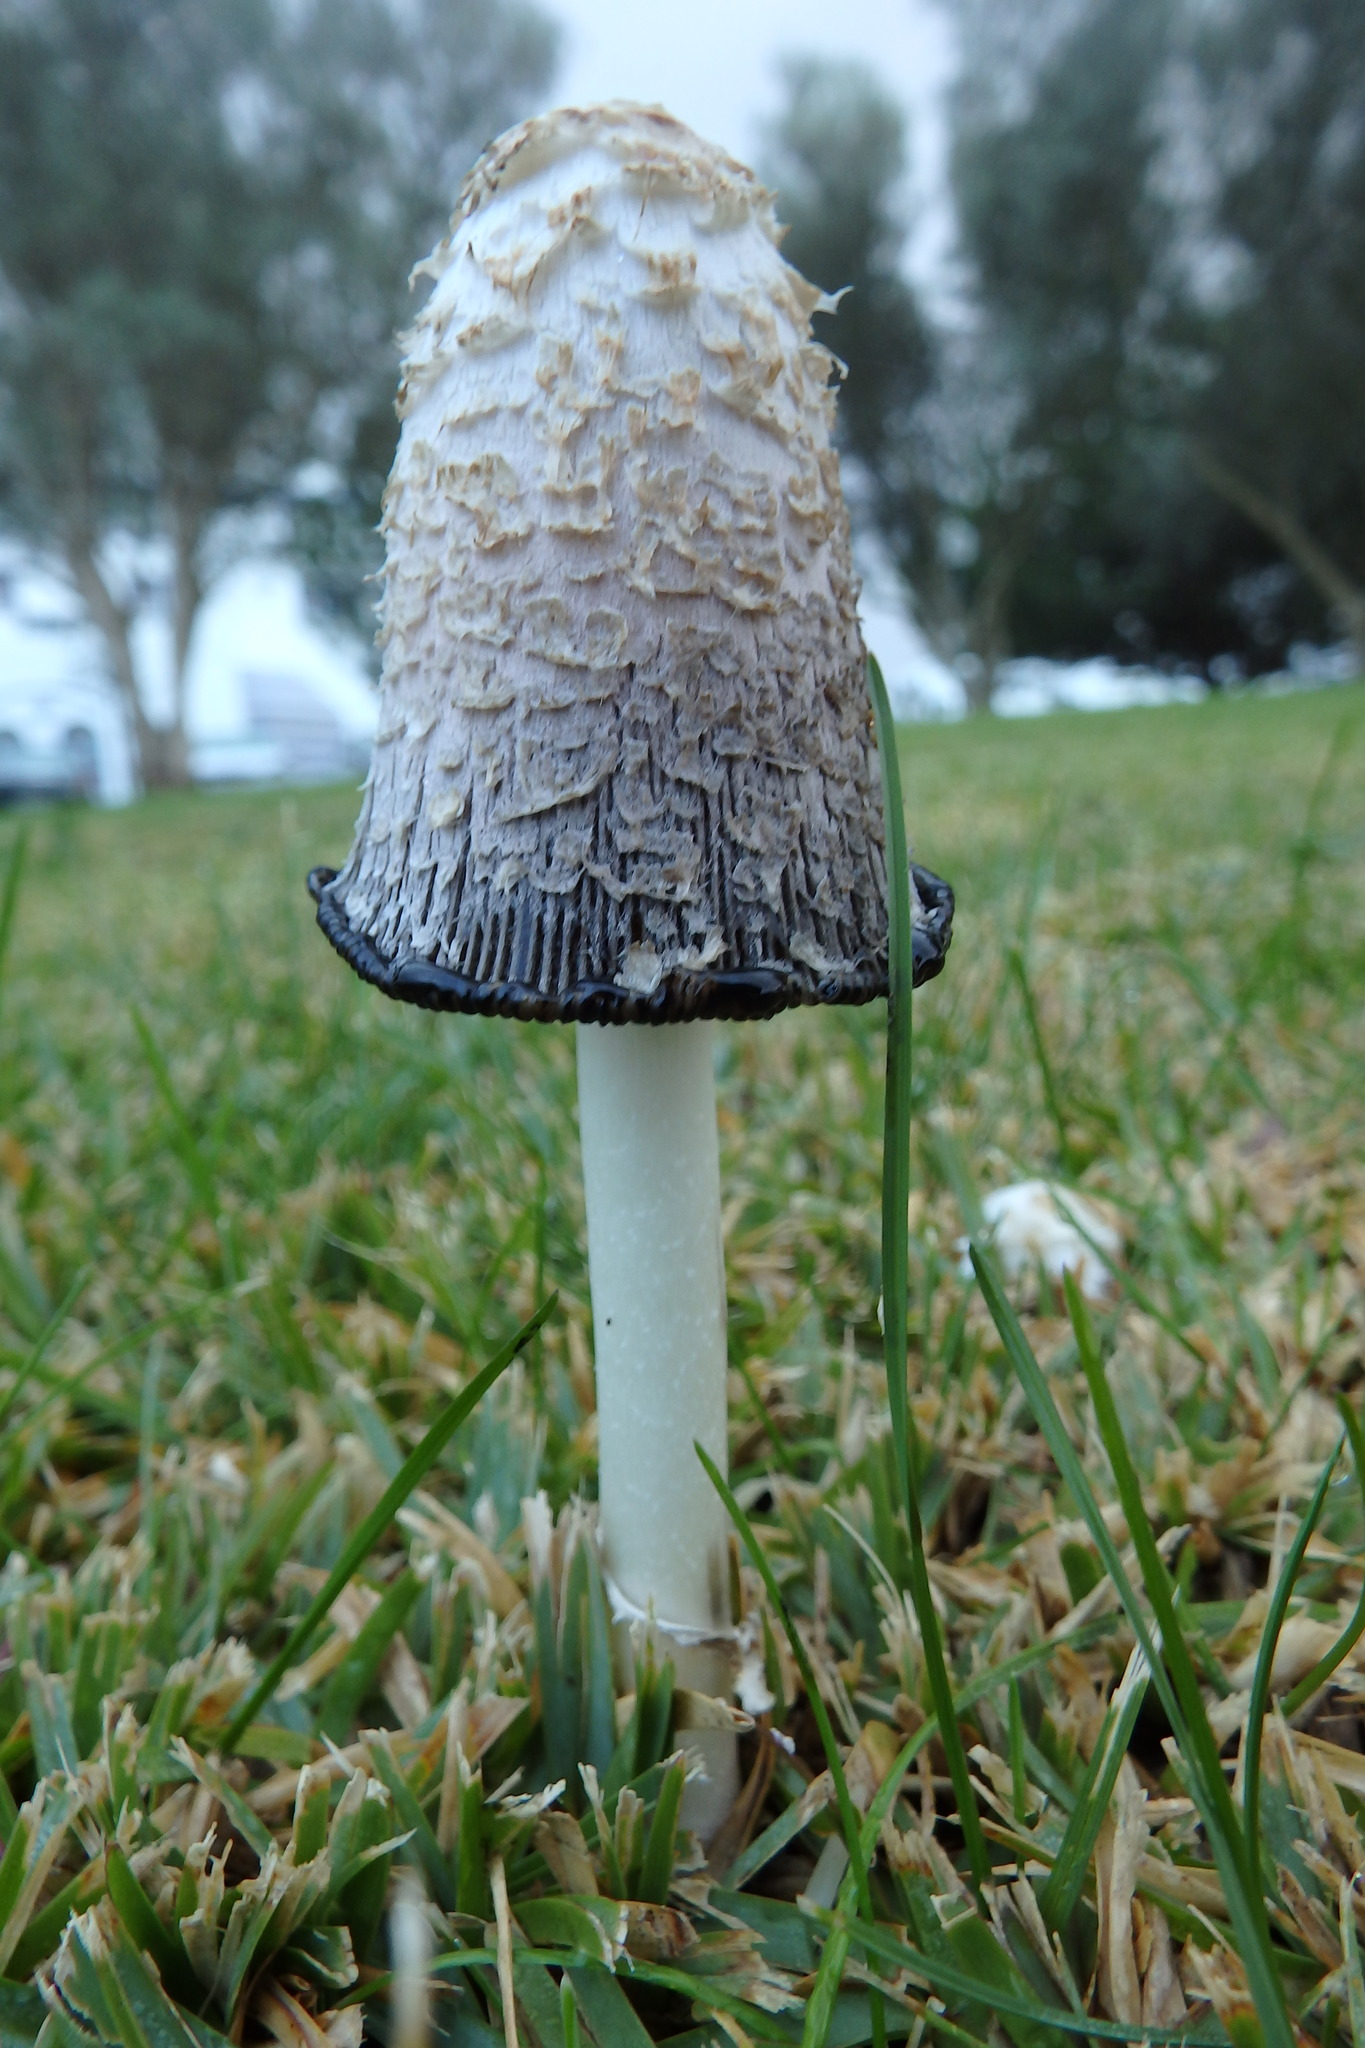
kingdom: Fungi
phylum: Basidiomycota
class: Agaricomycetes
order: Agaricales
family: Agaricaceae
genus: Coprinus
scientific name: Coprinus comatus
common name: Lawyer's wig
